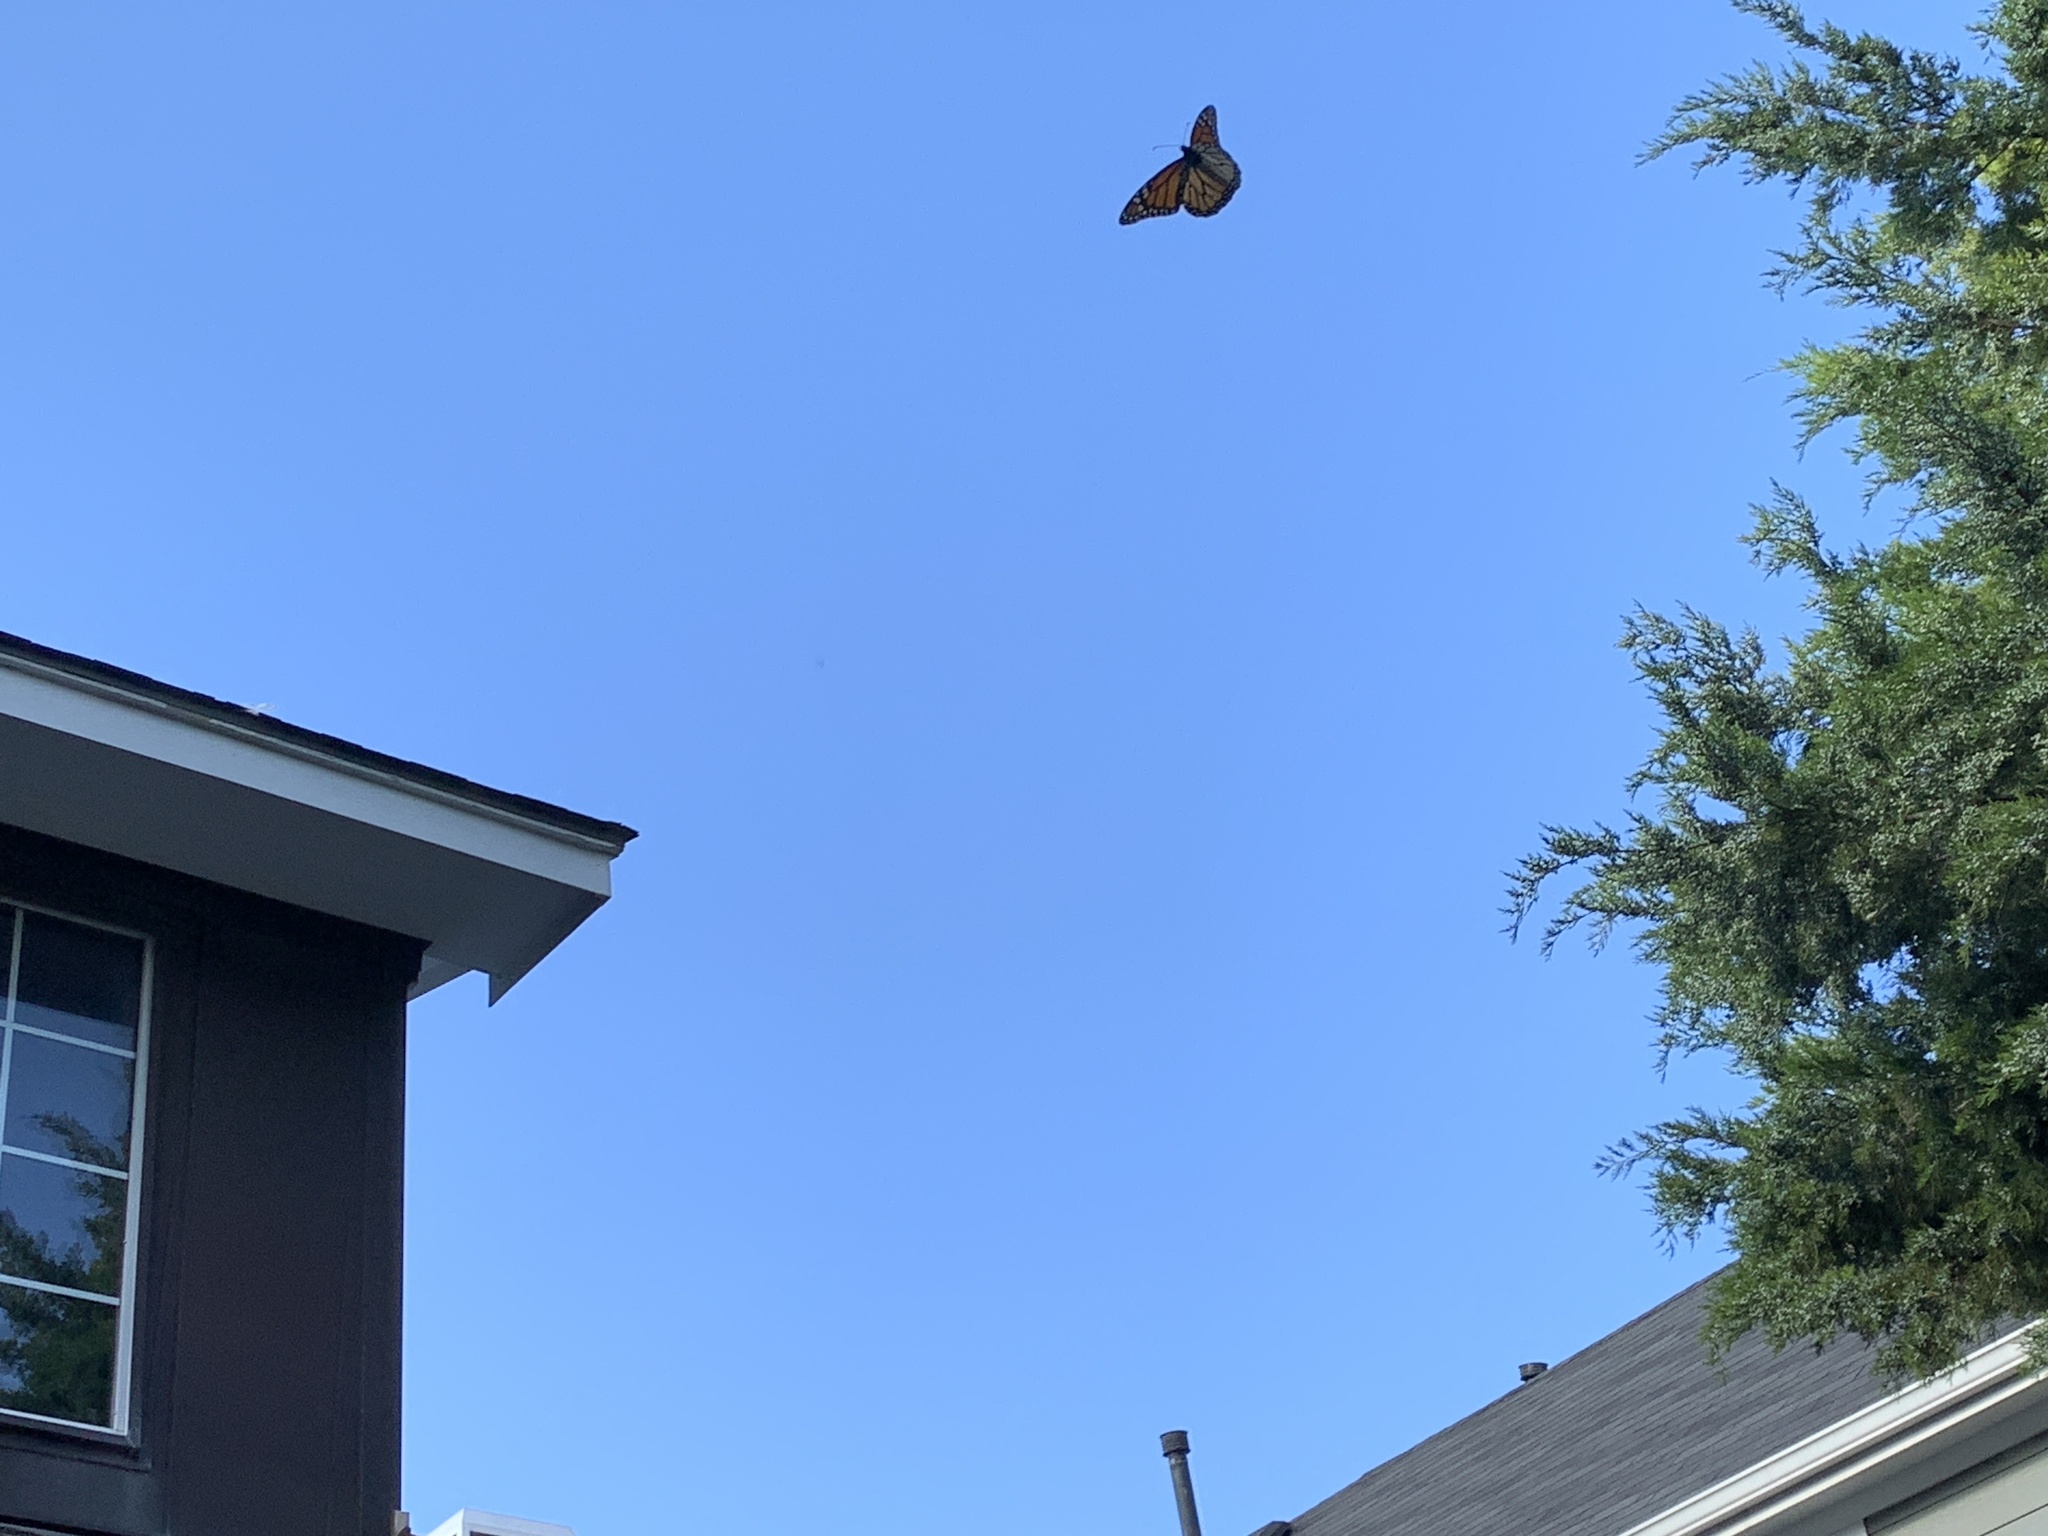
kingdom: Animalia
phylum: Arthropoda
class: Insecta
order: Lepidoptera
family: Nymphalidae
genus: Danaus
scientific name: Danaus plexippus
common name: Monarch
